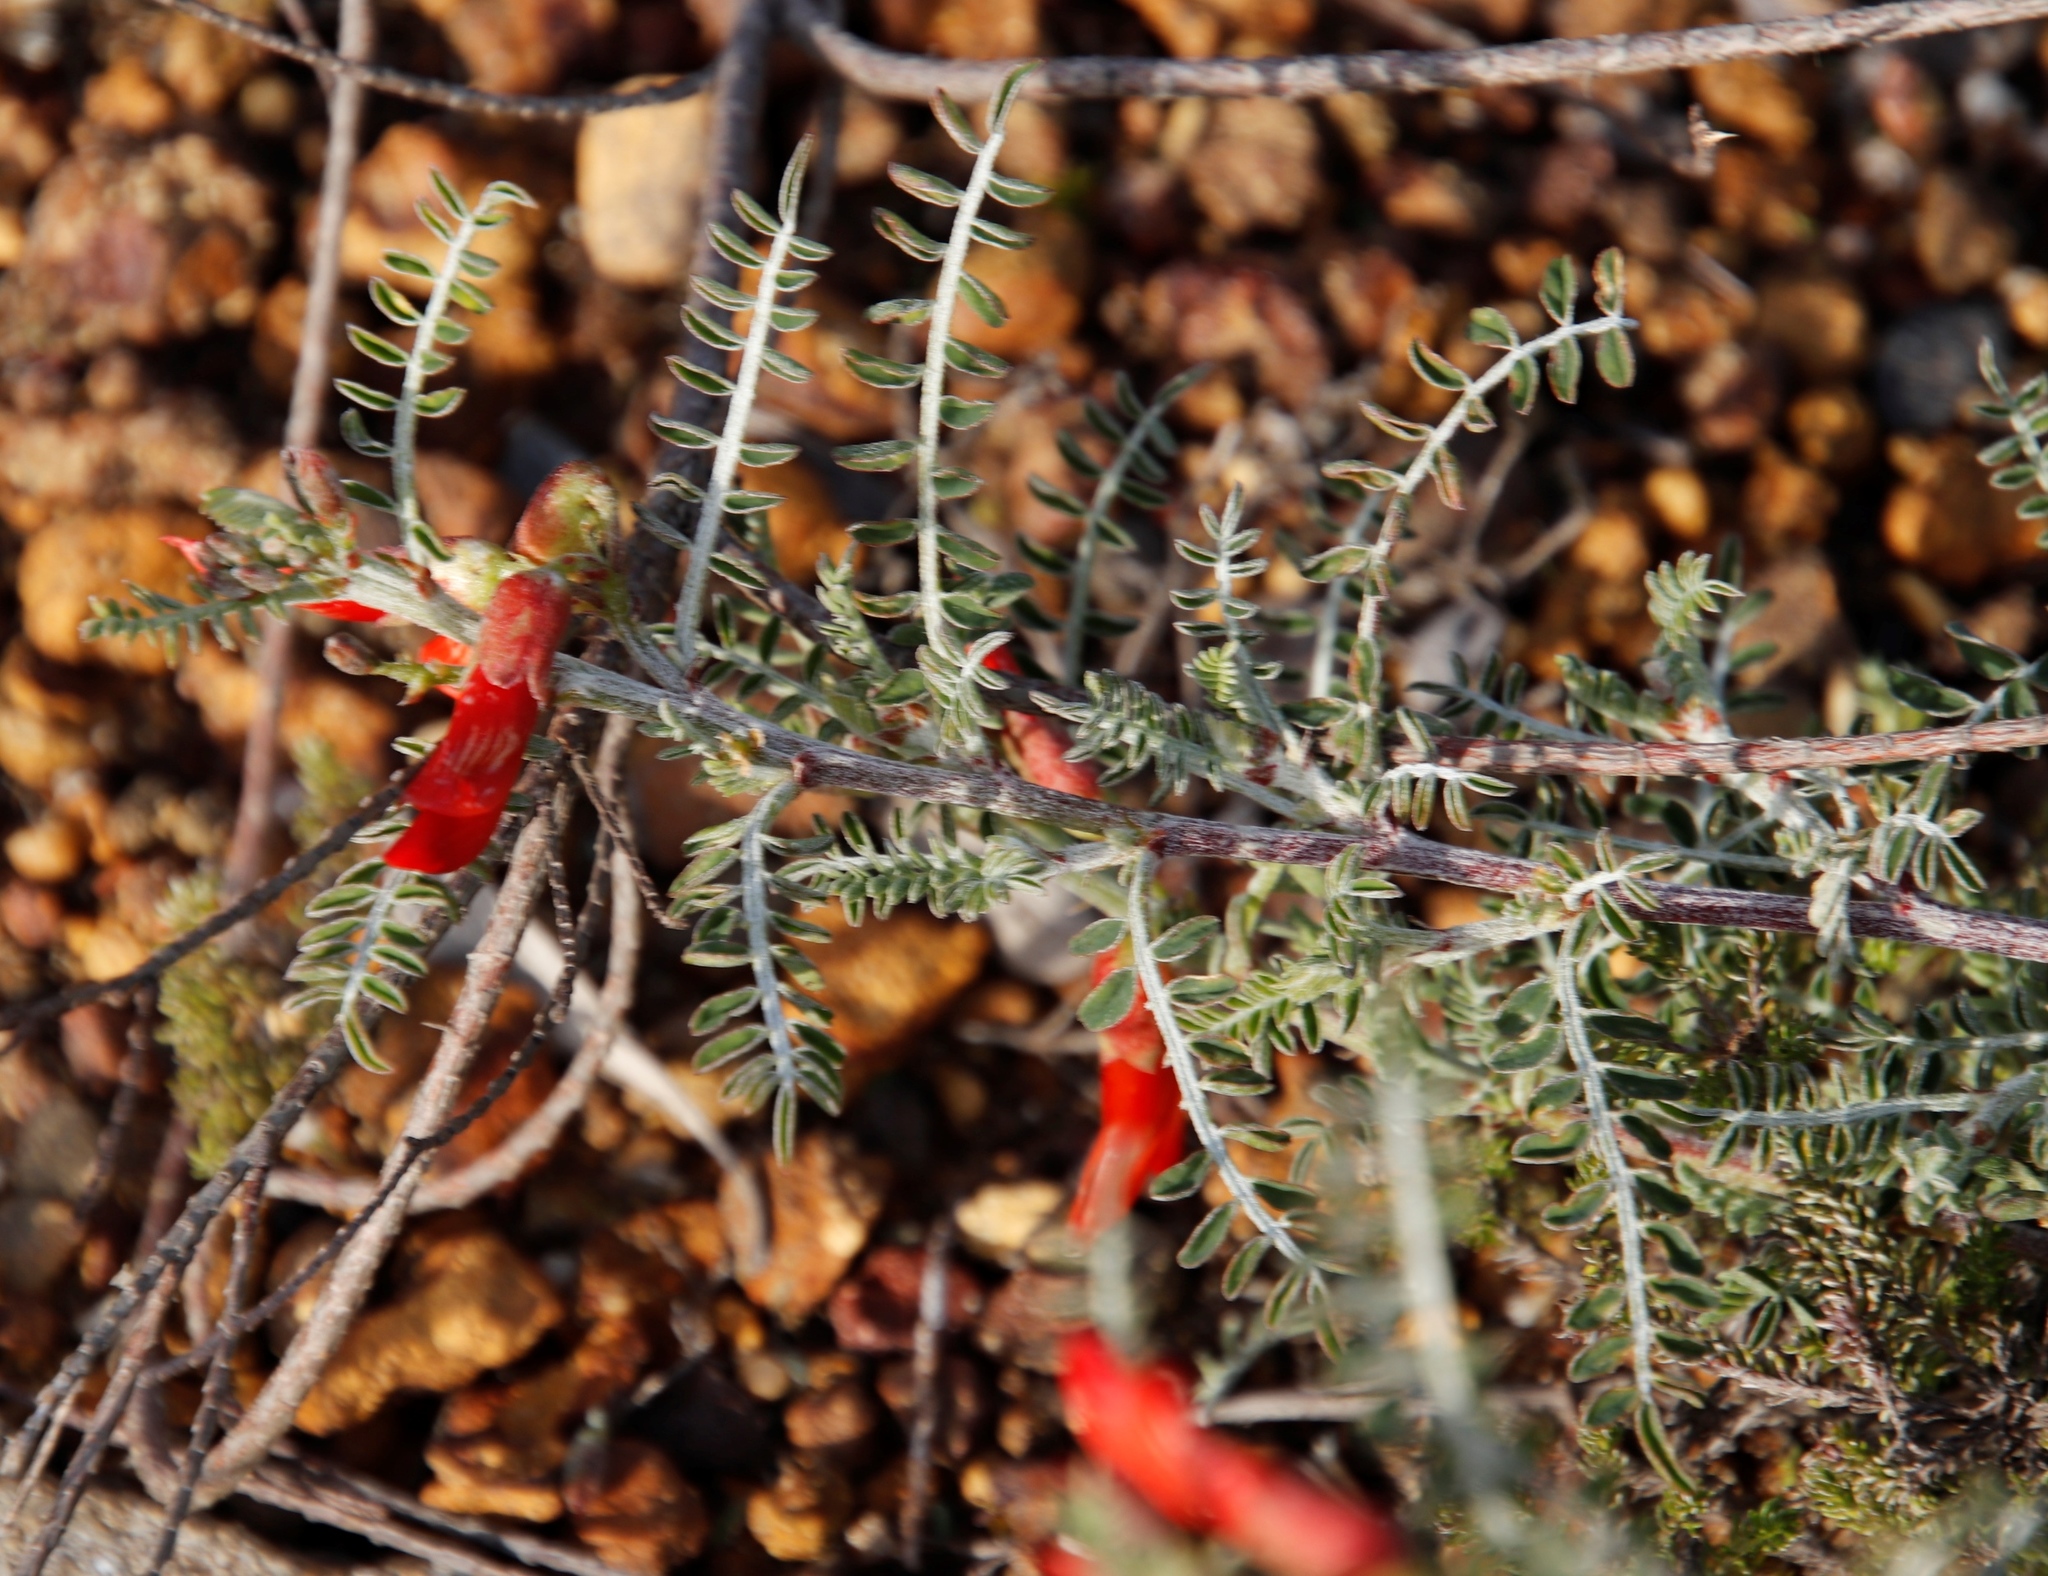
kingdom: Plantae
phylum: Tracheophyta
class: Magnoliopsida
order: Fabales
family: Fabaceae
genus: Lessertia
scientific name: Lessertia frutescens
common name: Balloon-pea
